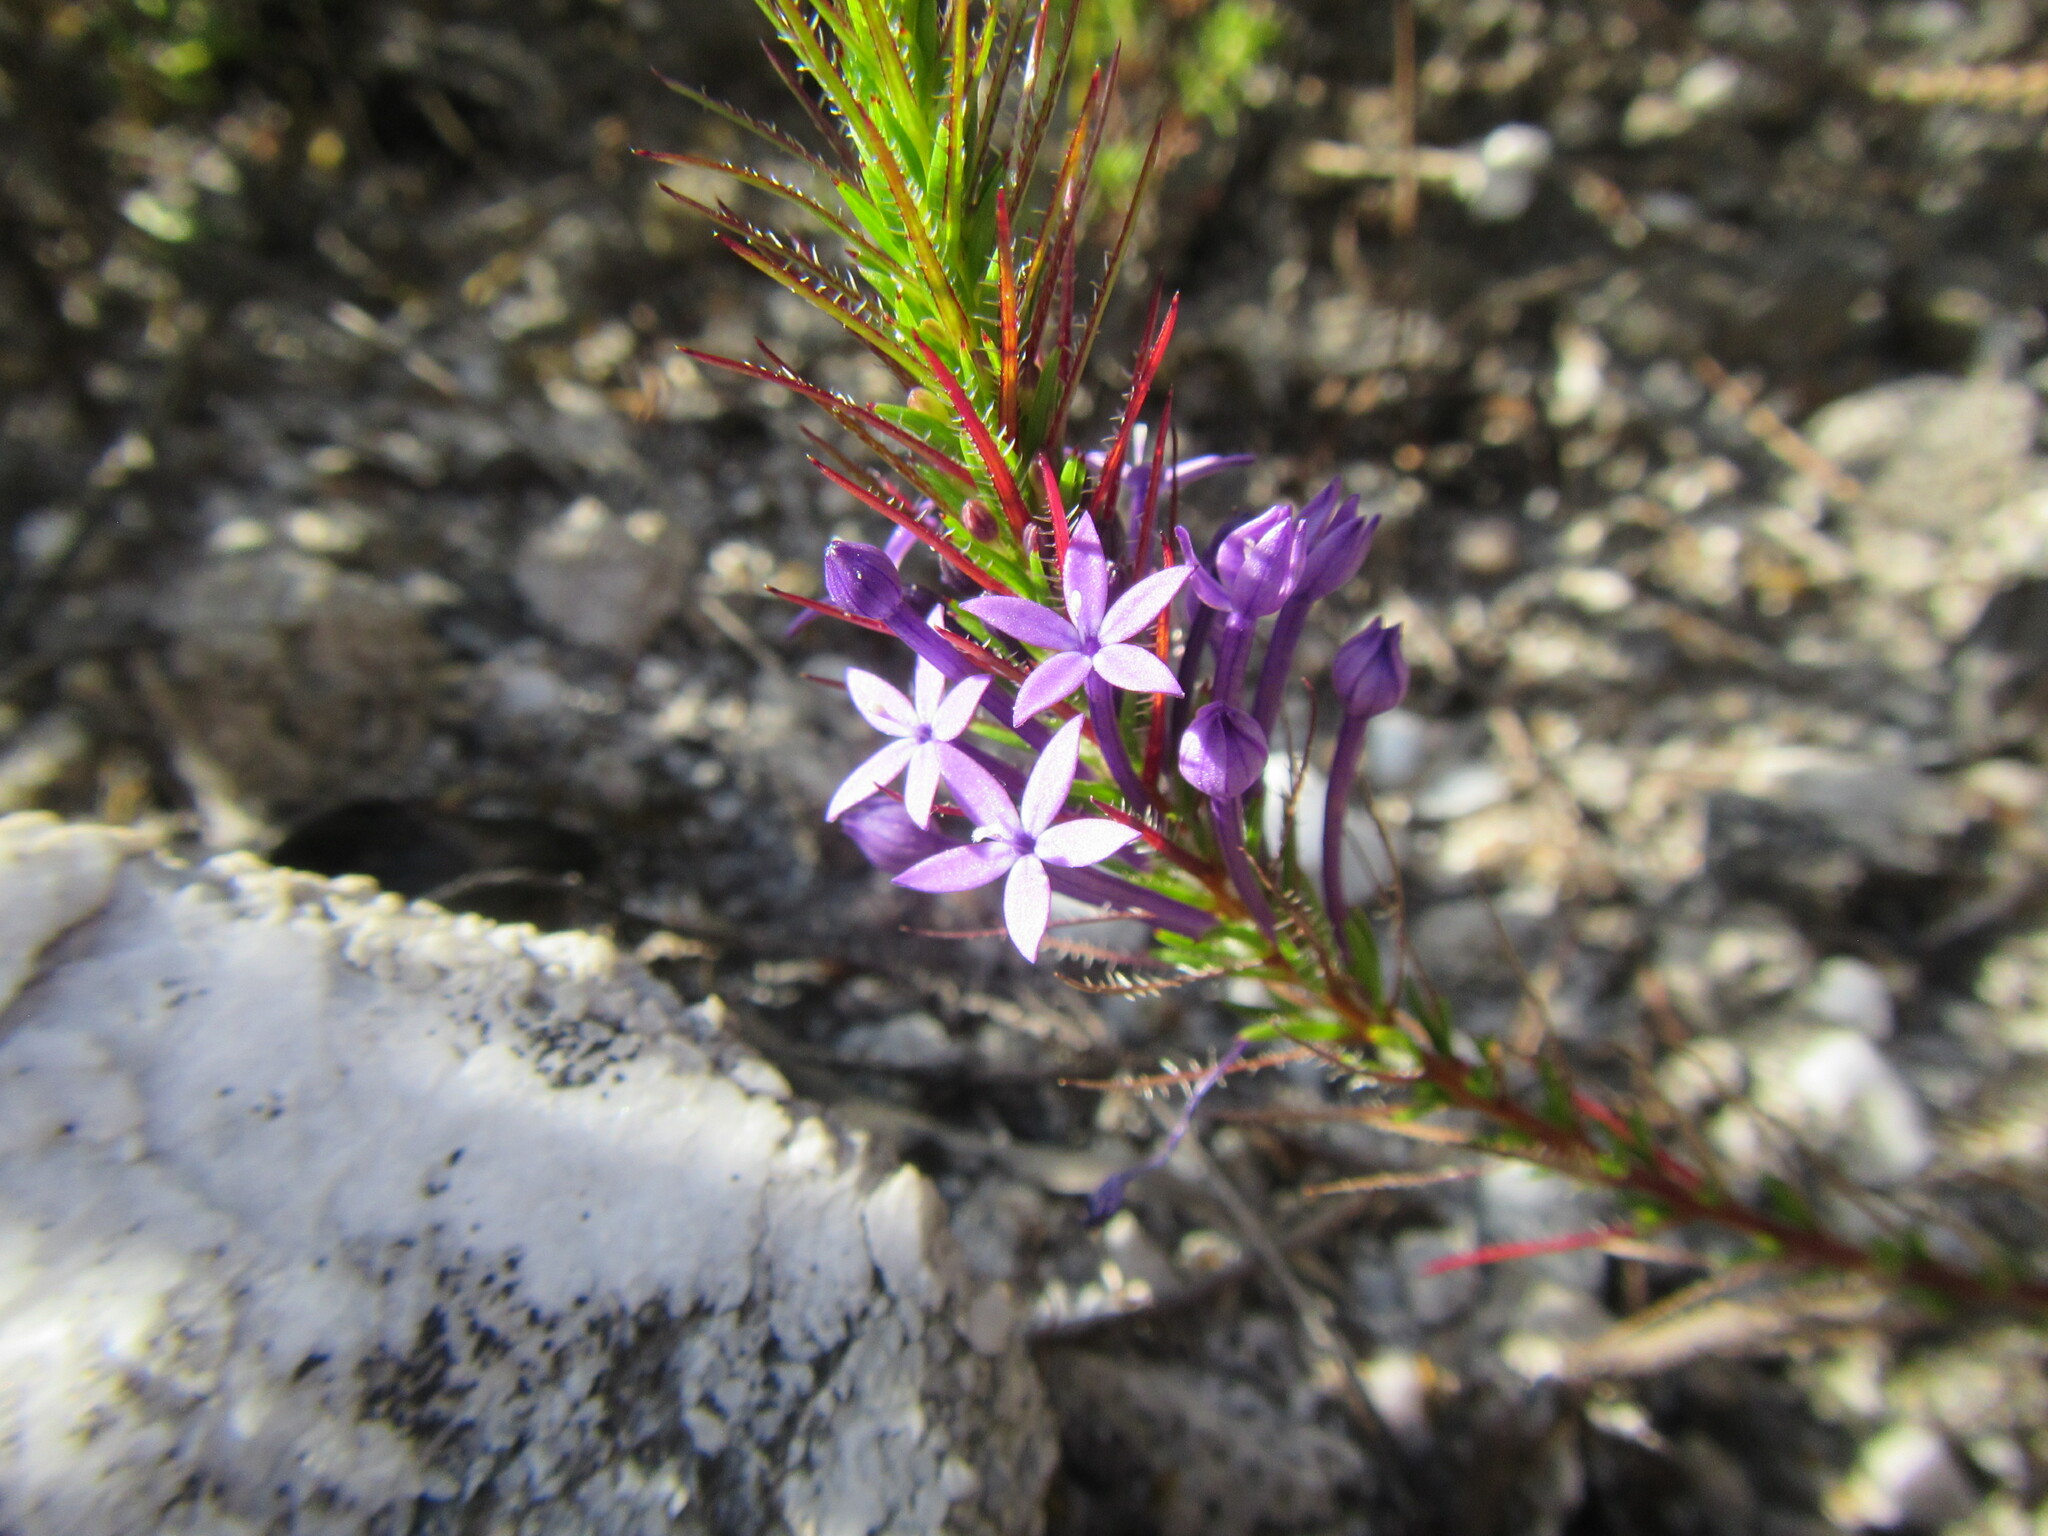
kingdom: Plantae
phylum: Tracheophyta
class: Magnoliopsida
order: Asterales
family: Campanulaceae
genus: Merciera
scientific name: Merciera azurea
